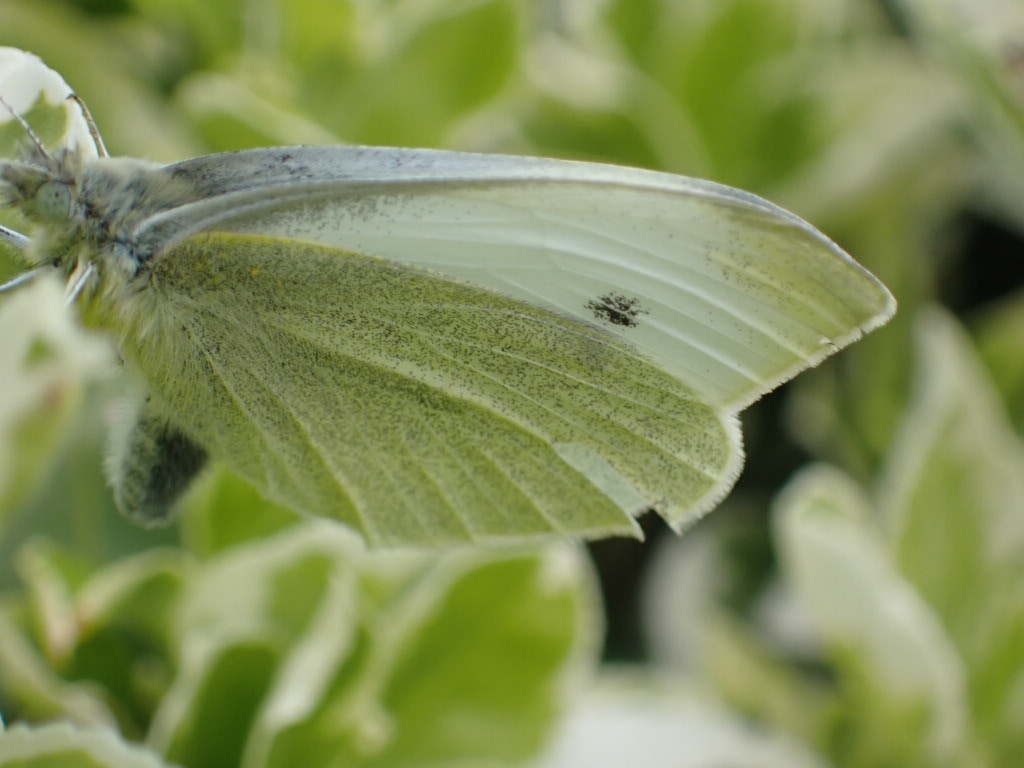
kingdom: Animalia
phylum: Arthropoda
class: Insecta
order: Lepidoptera
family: Pieridae
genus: Pieris
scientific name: Pieris rapae
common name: Small white
